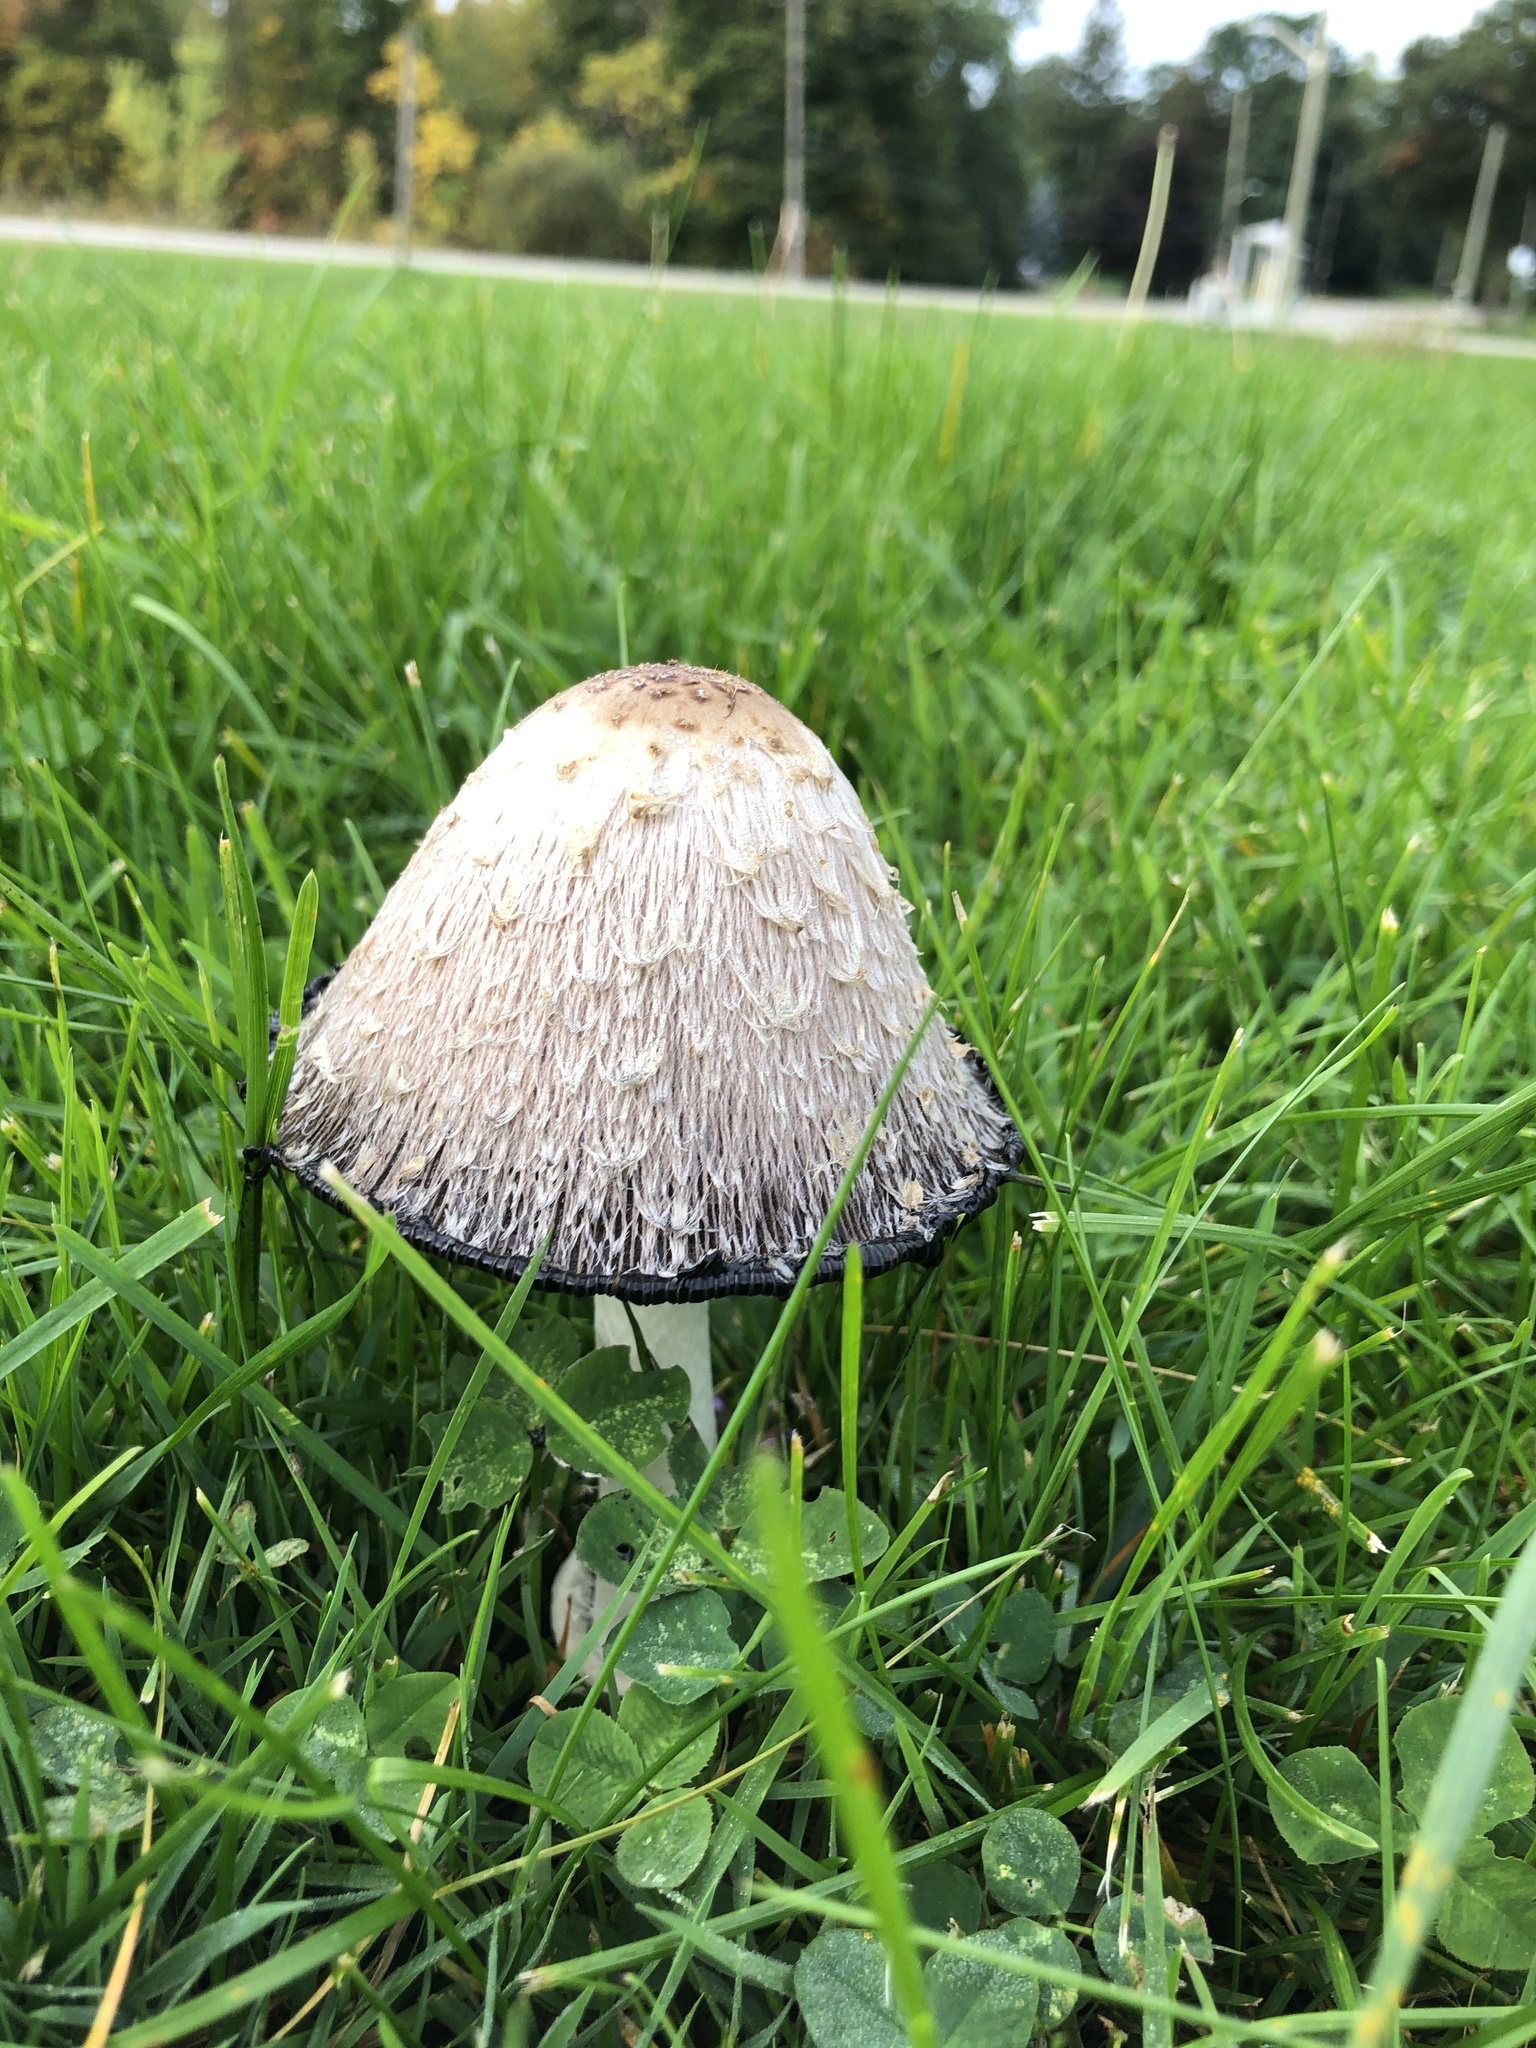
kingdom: Fungi
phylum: Basidiomycota
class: Agaricomycetes
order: Agaricales
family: Agaricaceae
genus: Coprinus
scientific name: Coprinus comatus
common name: Lawyer's wig
